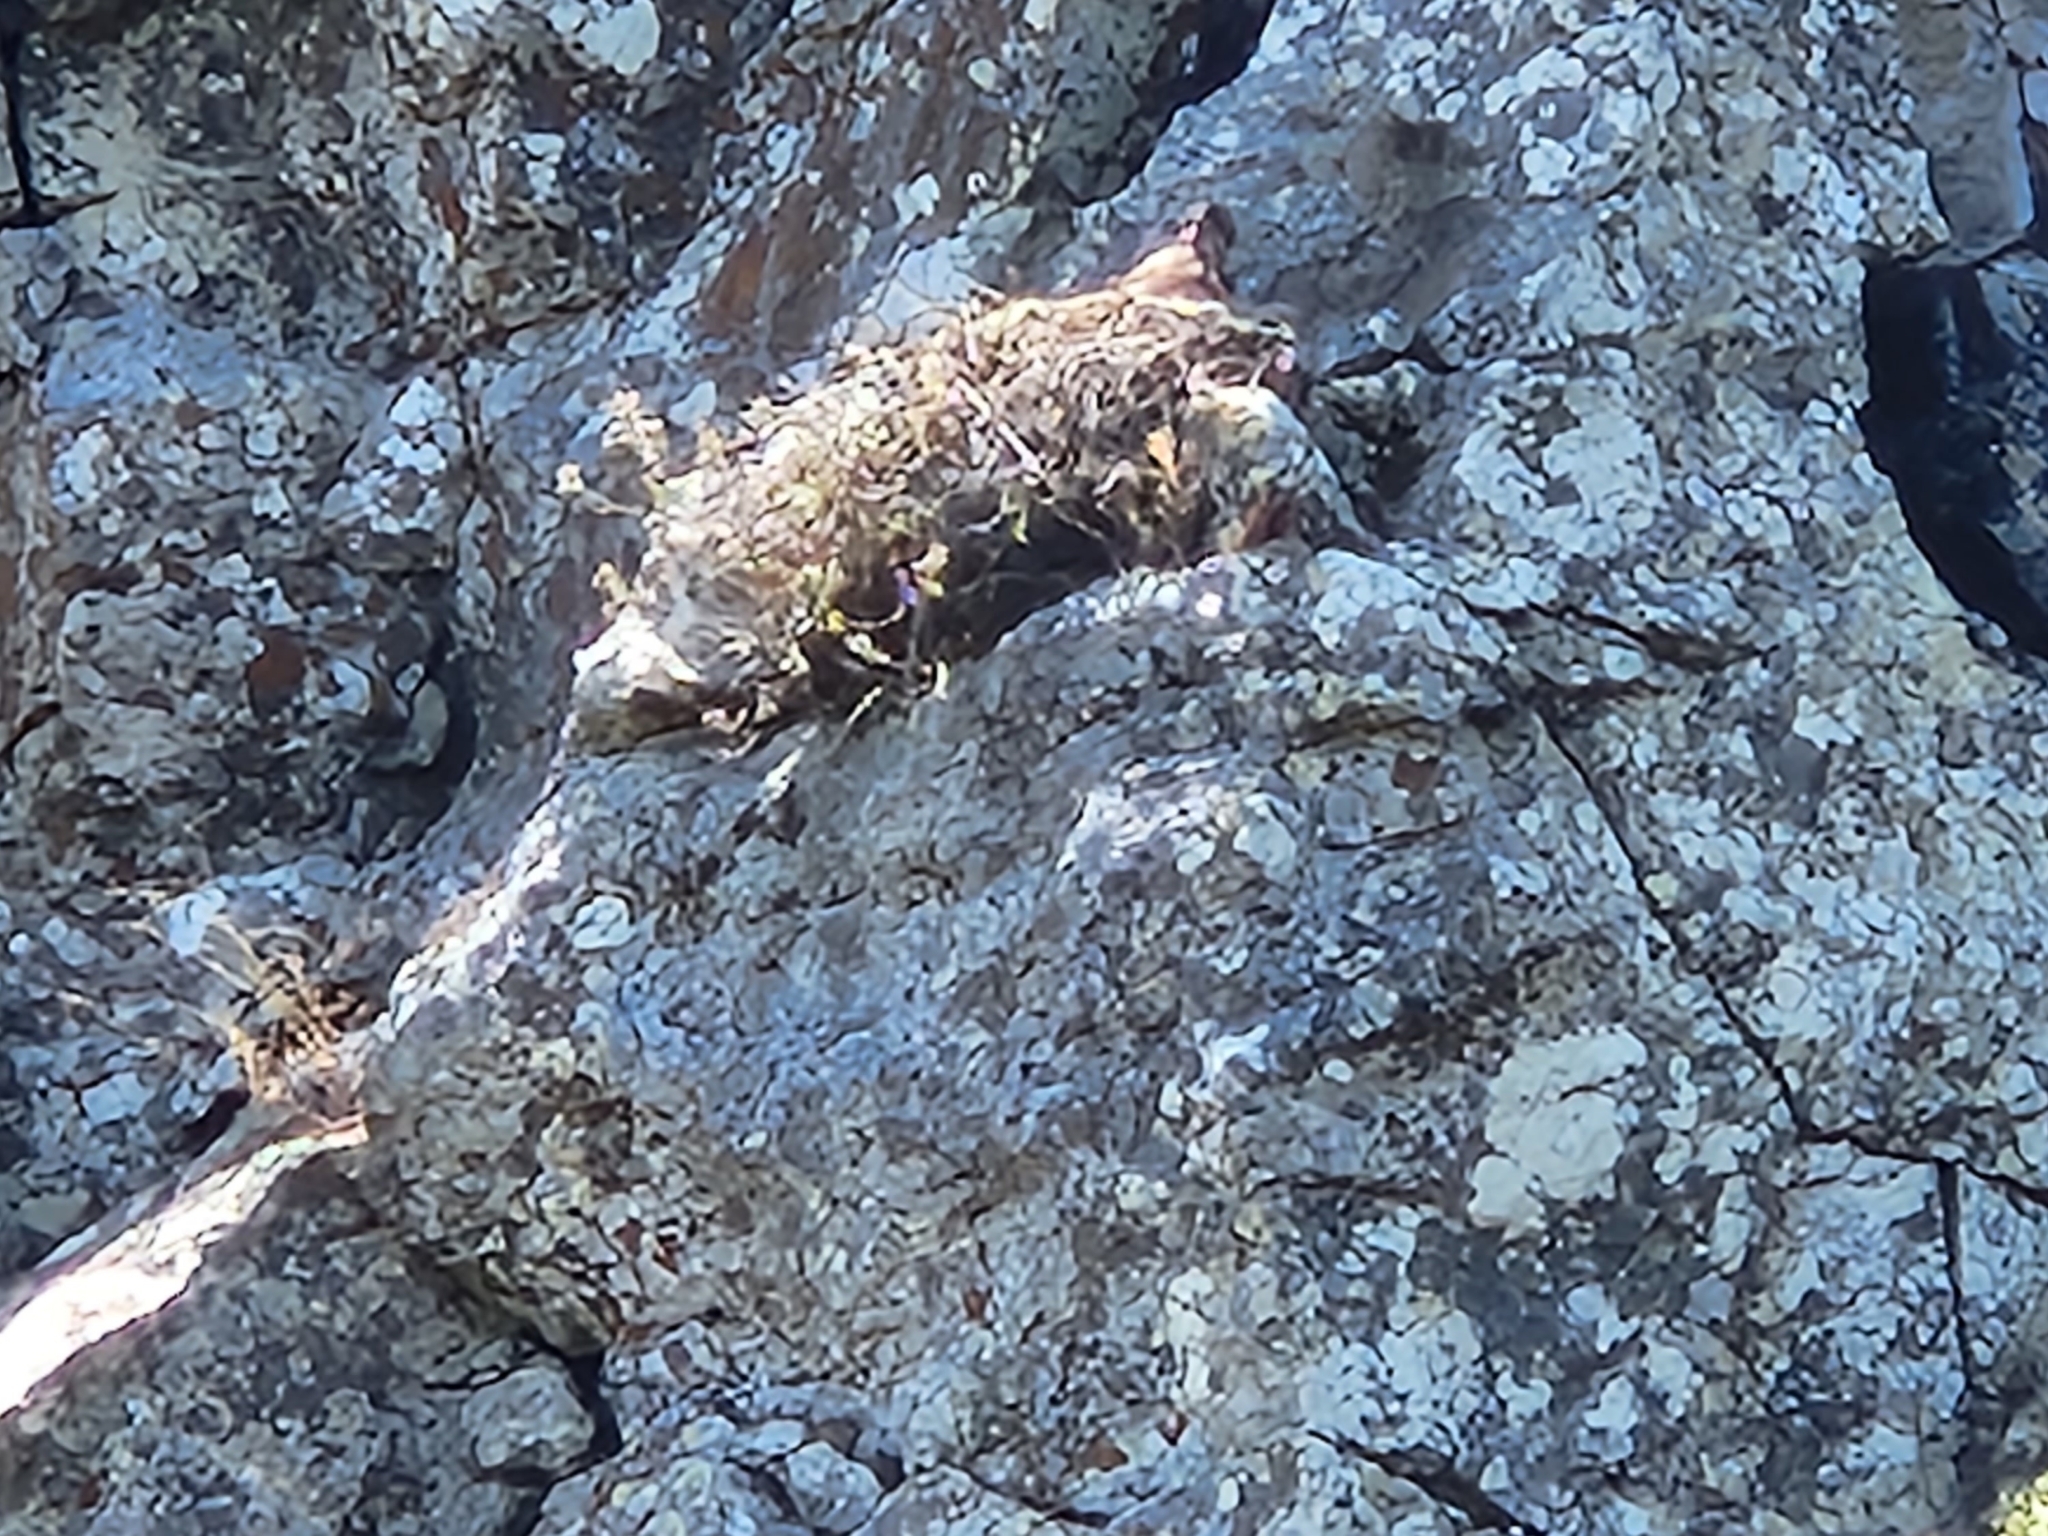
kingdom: Animalia
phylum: Chordata
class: Aves
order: Accipitriformes
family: Accipitridae
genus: Buteo
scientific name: Buteo jamaicensis
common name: Red-tailed hawk
